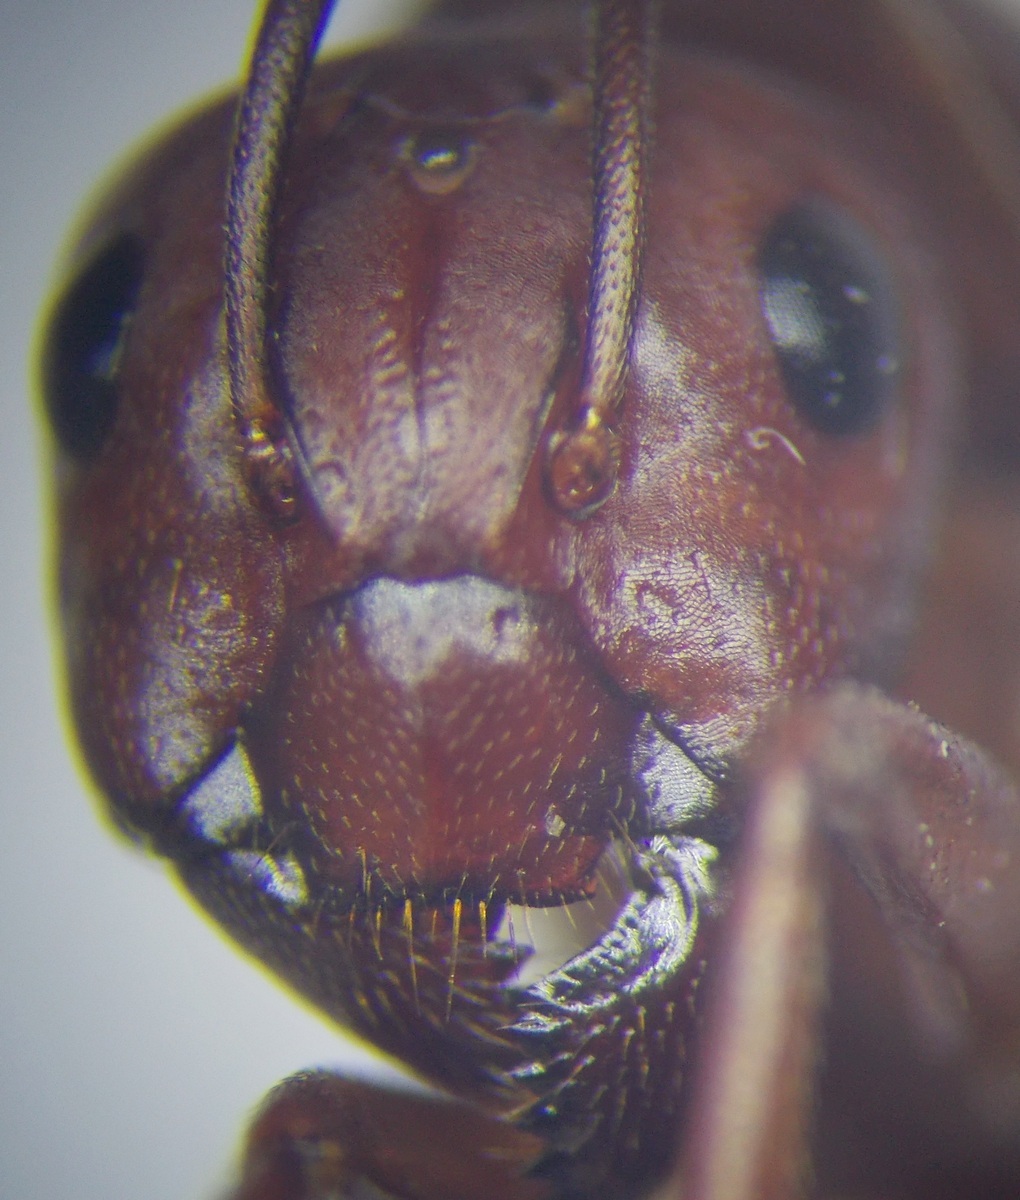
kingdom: Animalia
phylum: Arthropoda
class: Insecta
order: Hymenoptera
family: Formicidae
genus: Camponotus
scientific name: Camponotus turkestanicus
